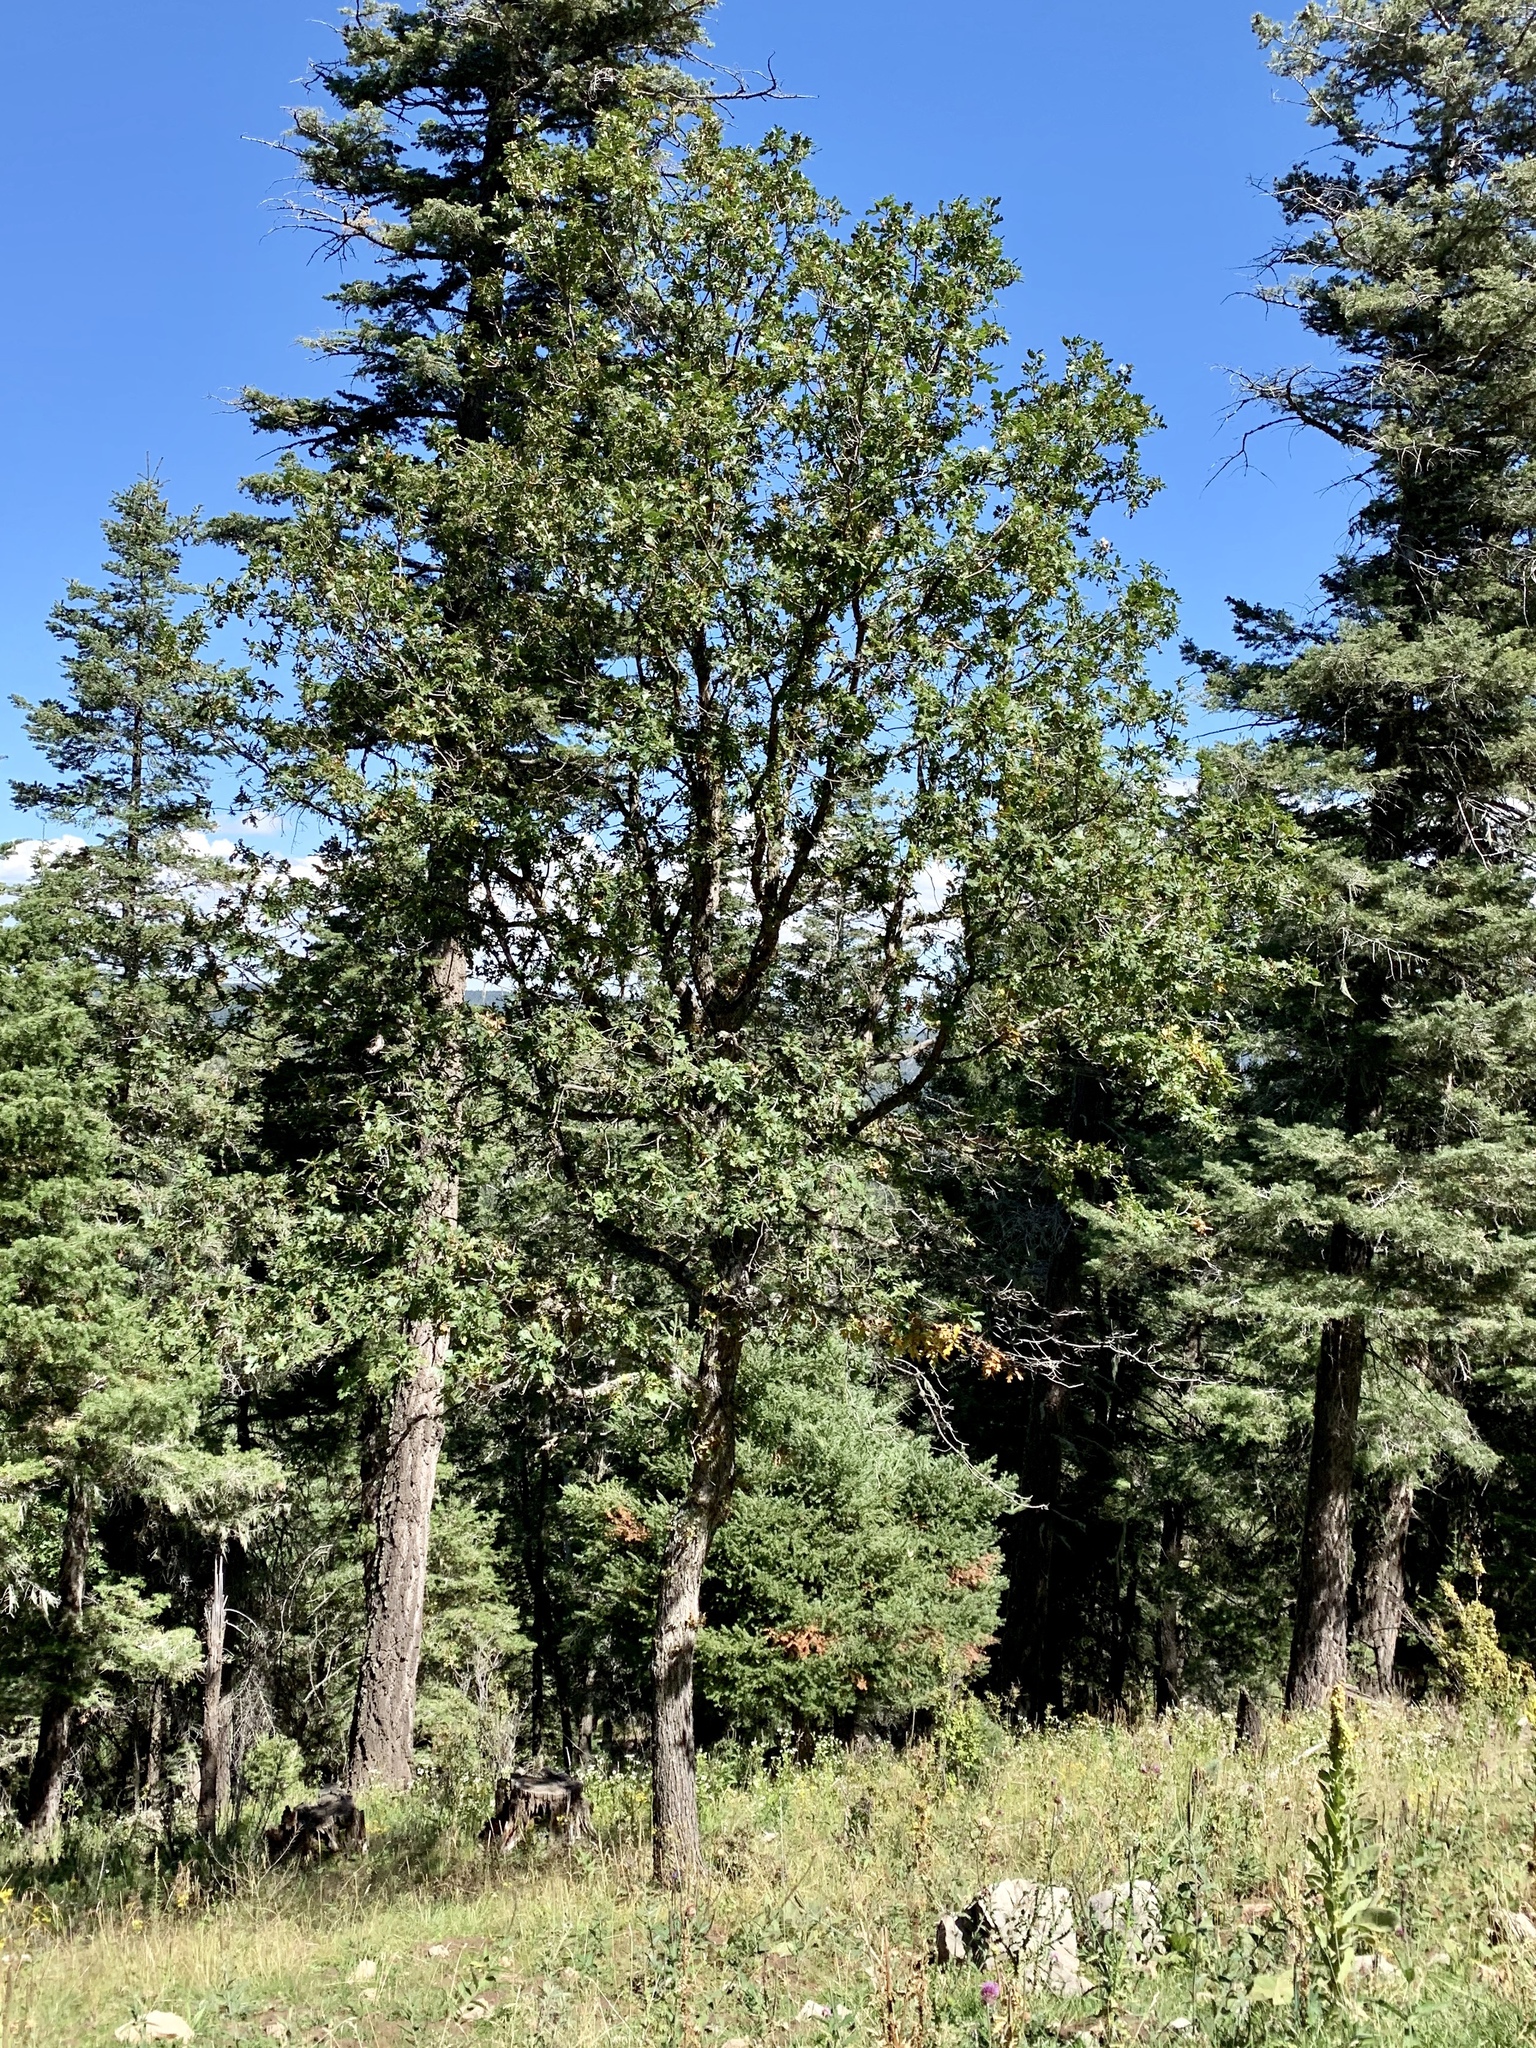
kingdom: Plantae
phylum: Tracheophyta
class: Magnoliopsida
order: Fagales
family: Fagaceae
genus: Quercus
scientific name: Quercus gambelii
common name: Gambel oak
